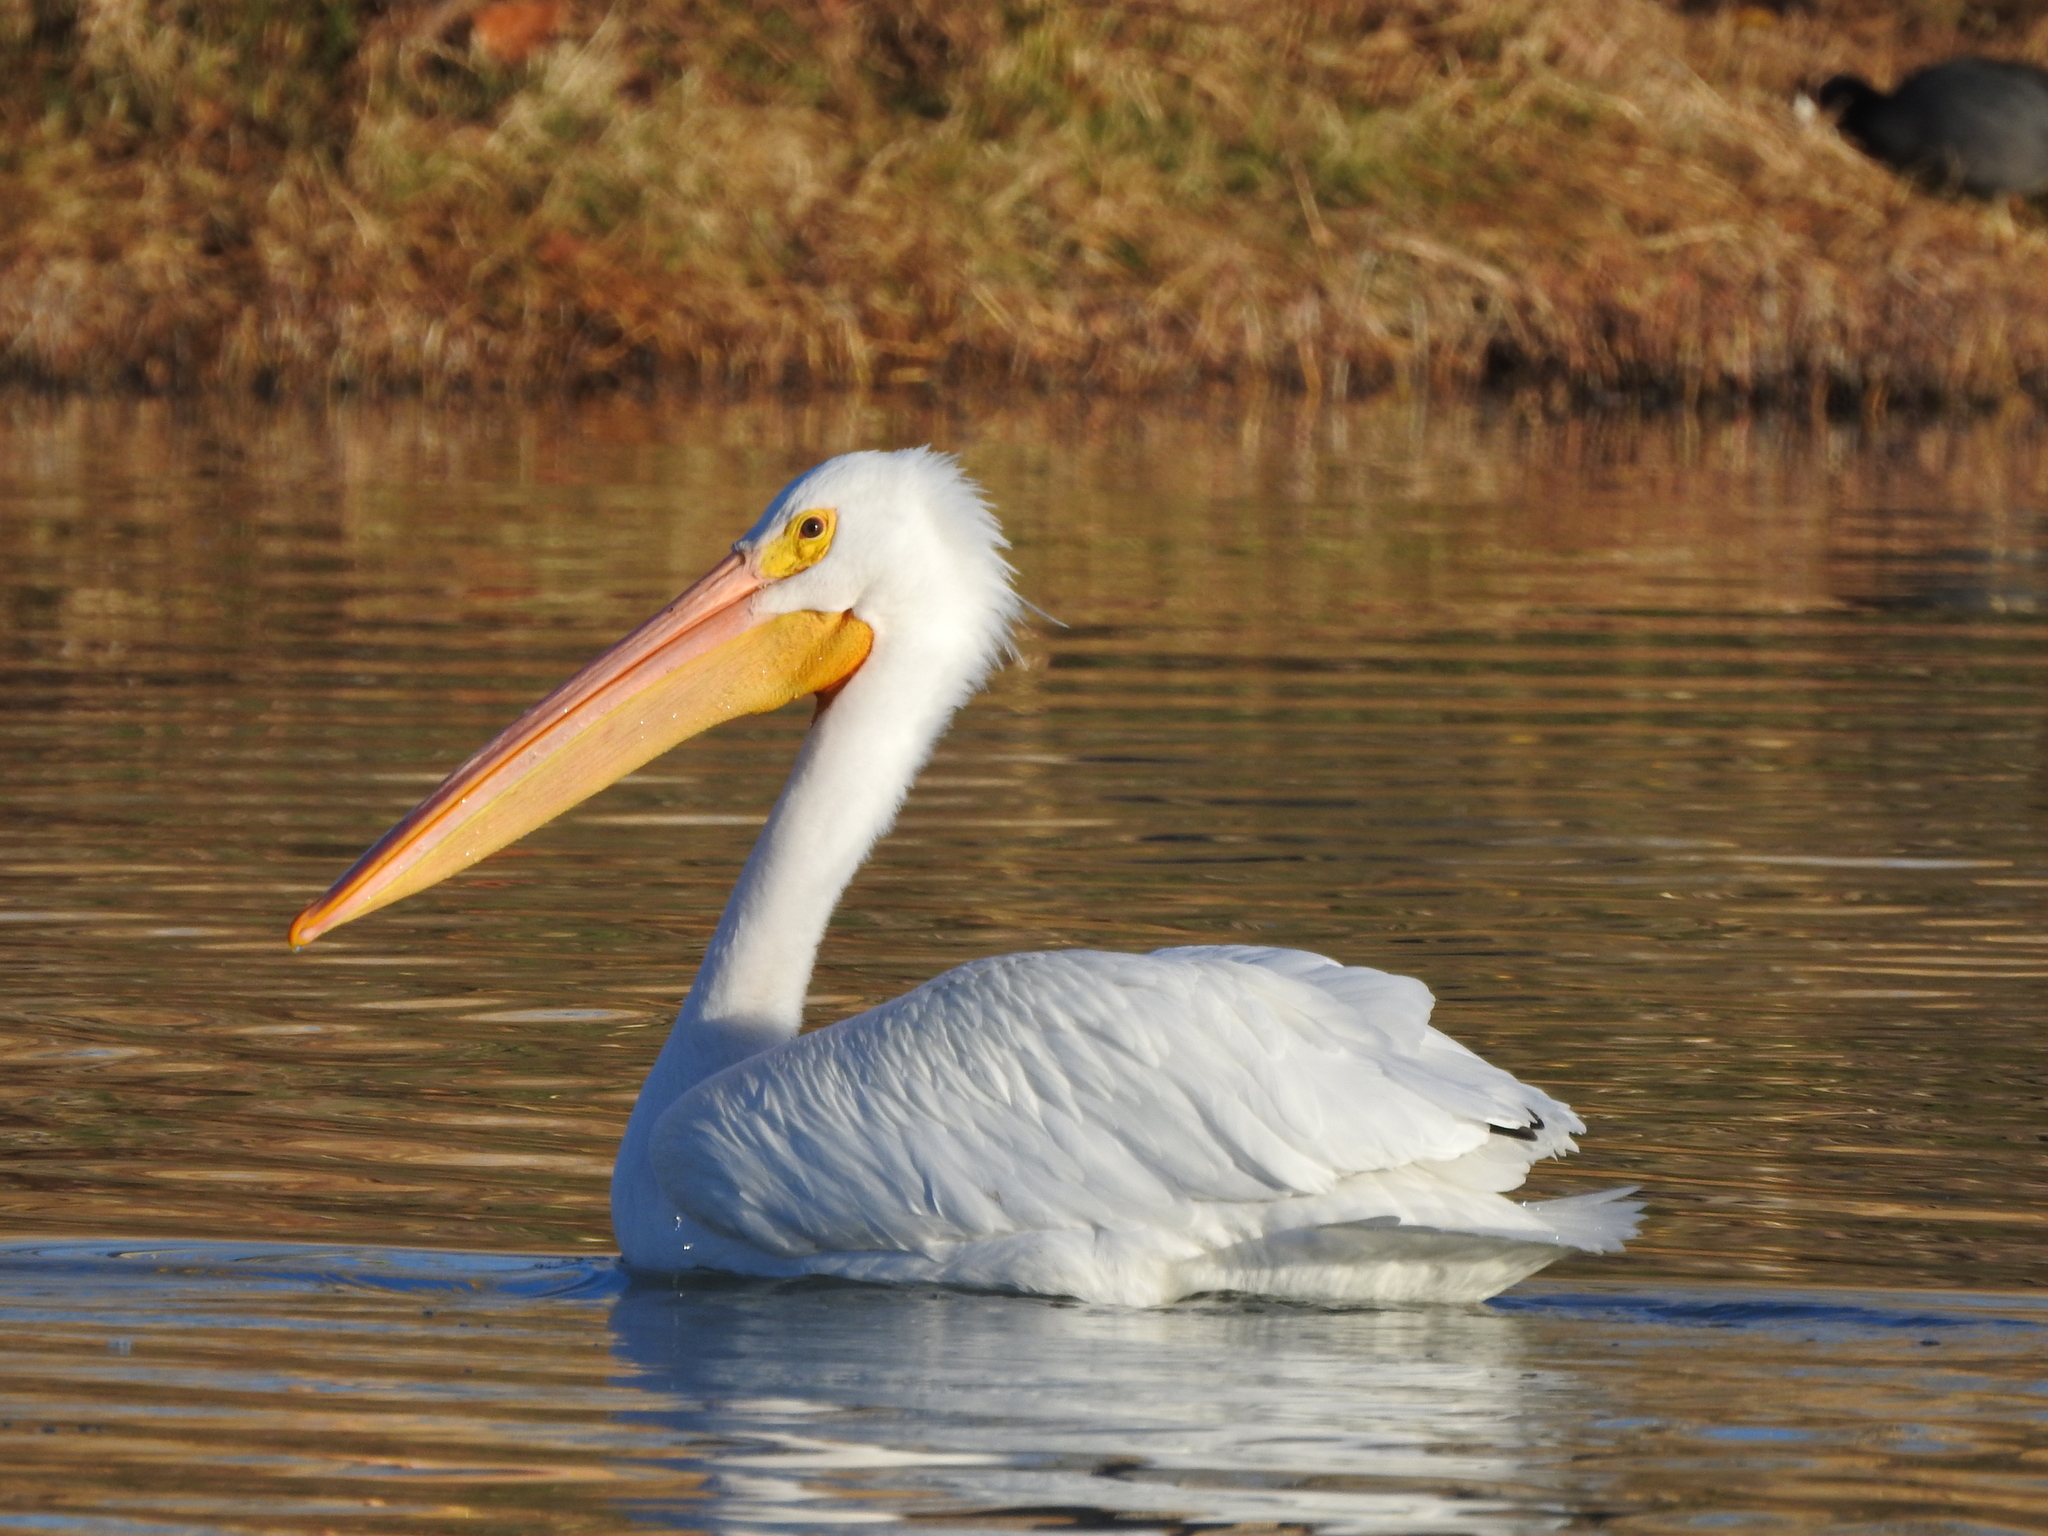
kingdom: Animalia
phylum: Chordata
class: Aves
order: Pelecaniformes
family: Pelecanidae
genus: Pelecanus
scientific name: Pelecanus erythrorhynchos
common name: American white pelican
